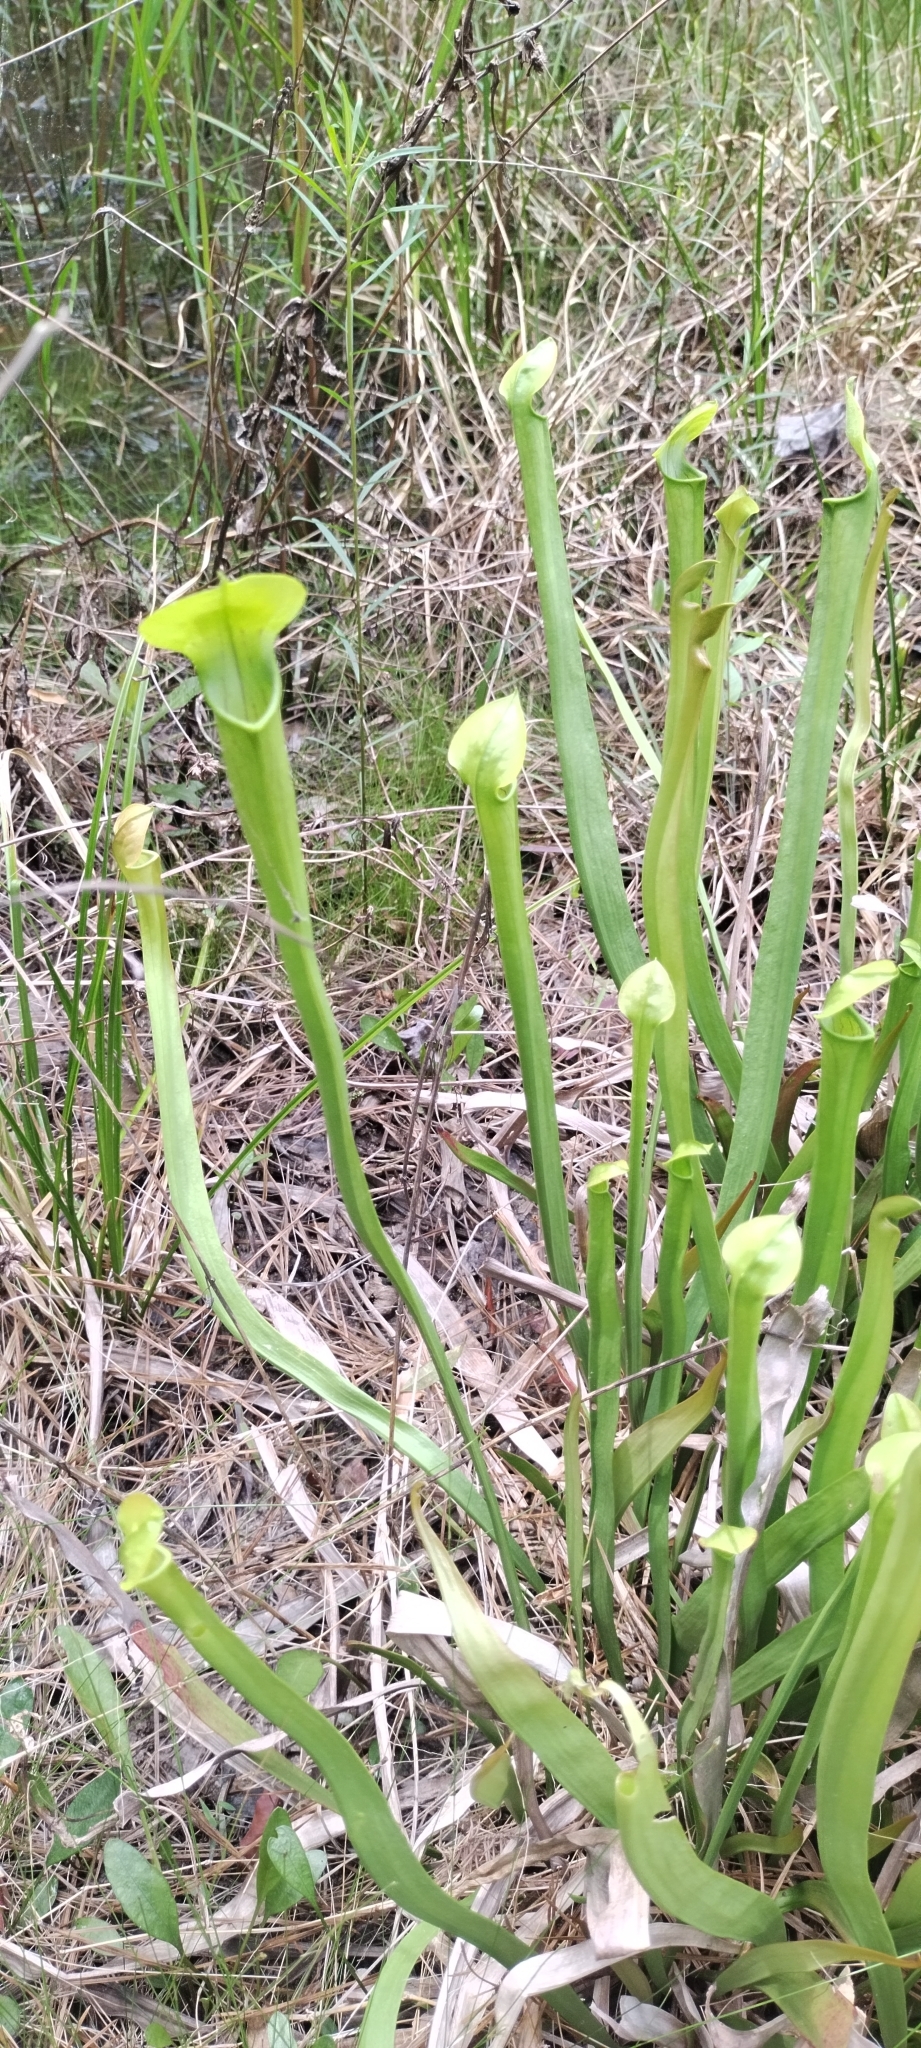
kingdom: Plantae
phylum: Tracheophyta
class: Magnoliopsida
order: Ericales
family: Sarraceniaceae
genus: Sarracenia
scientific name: Sarracenia alata
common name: Yellow trumpets
